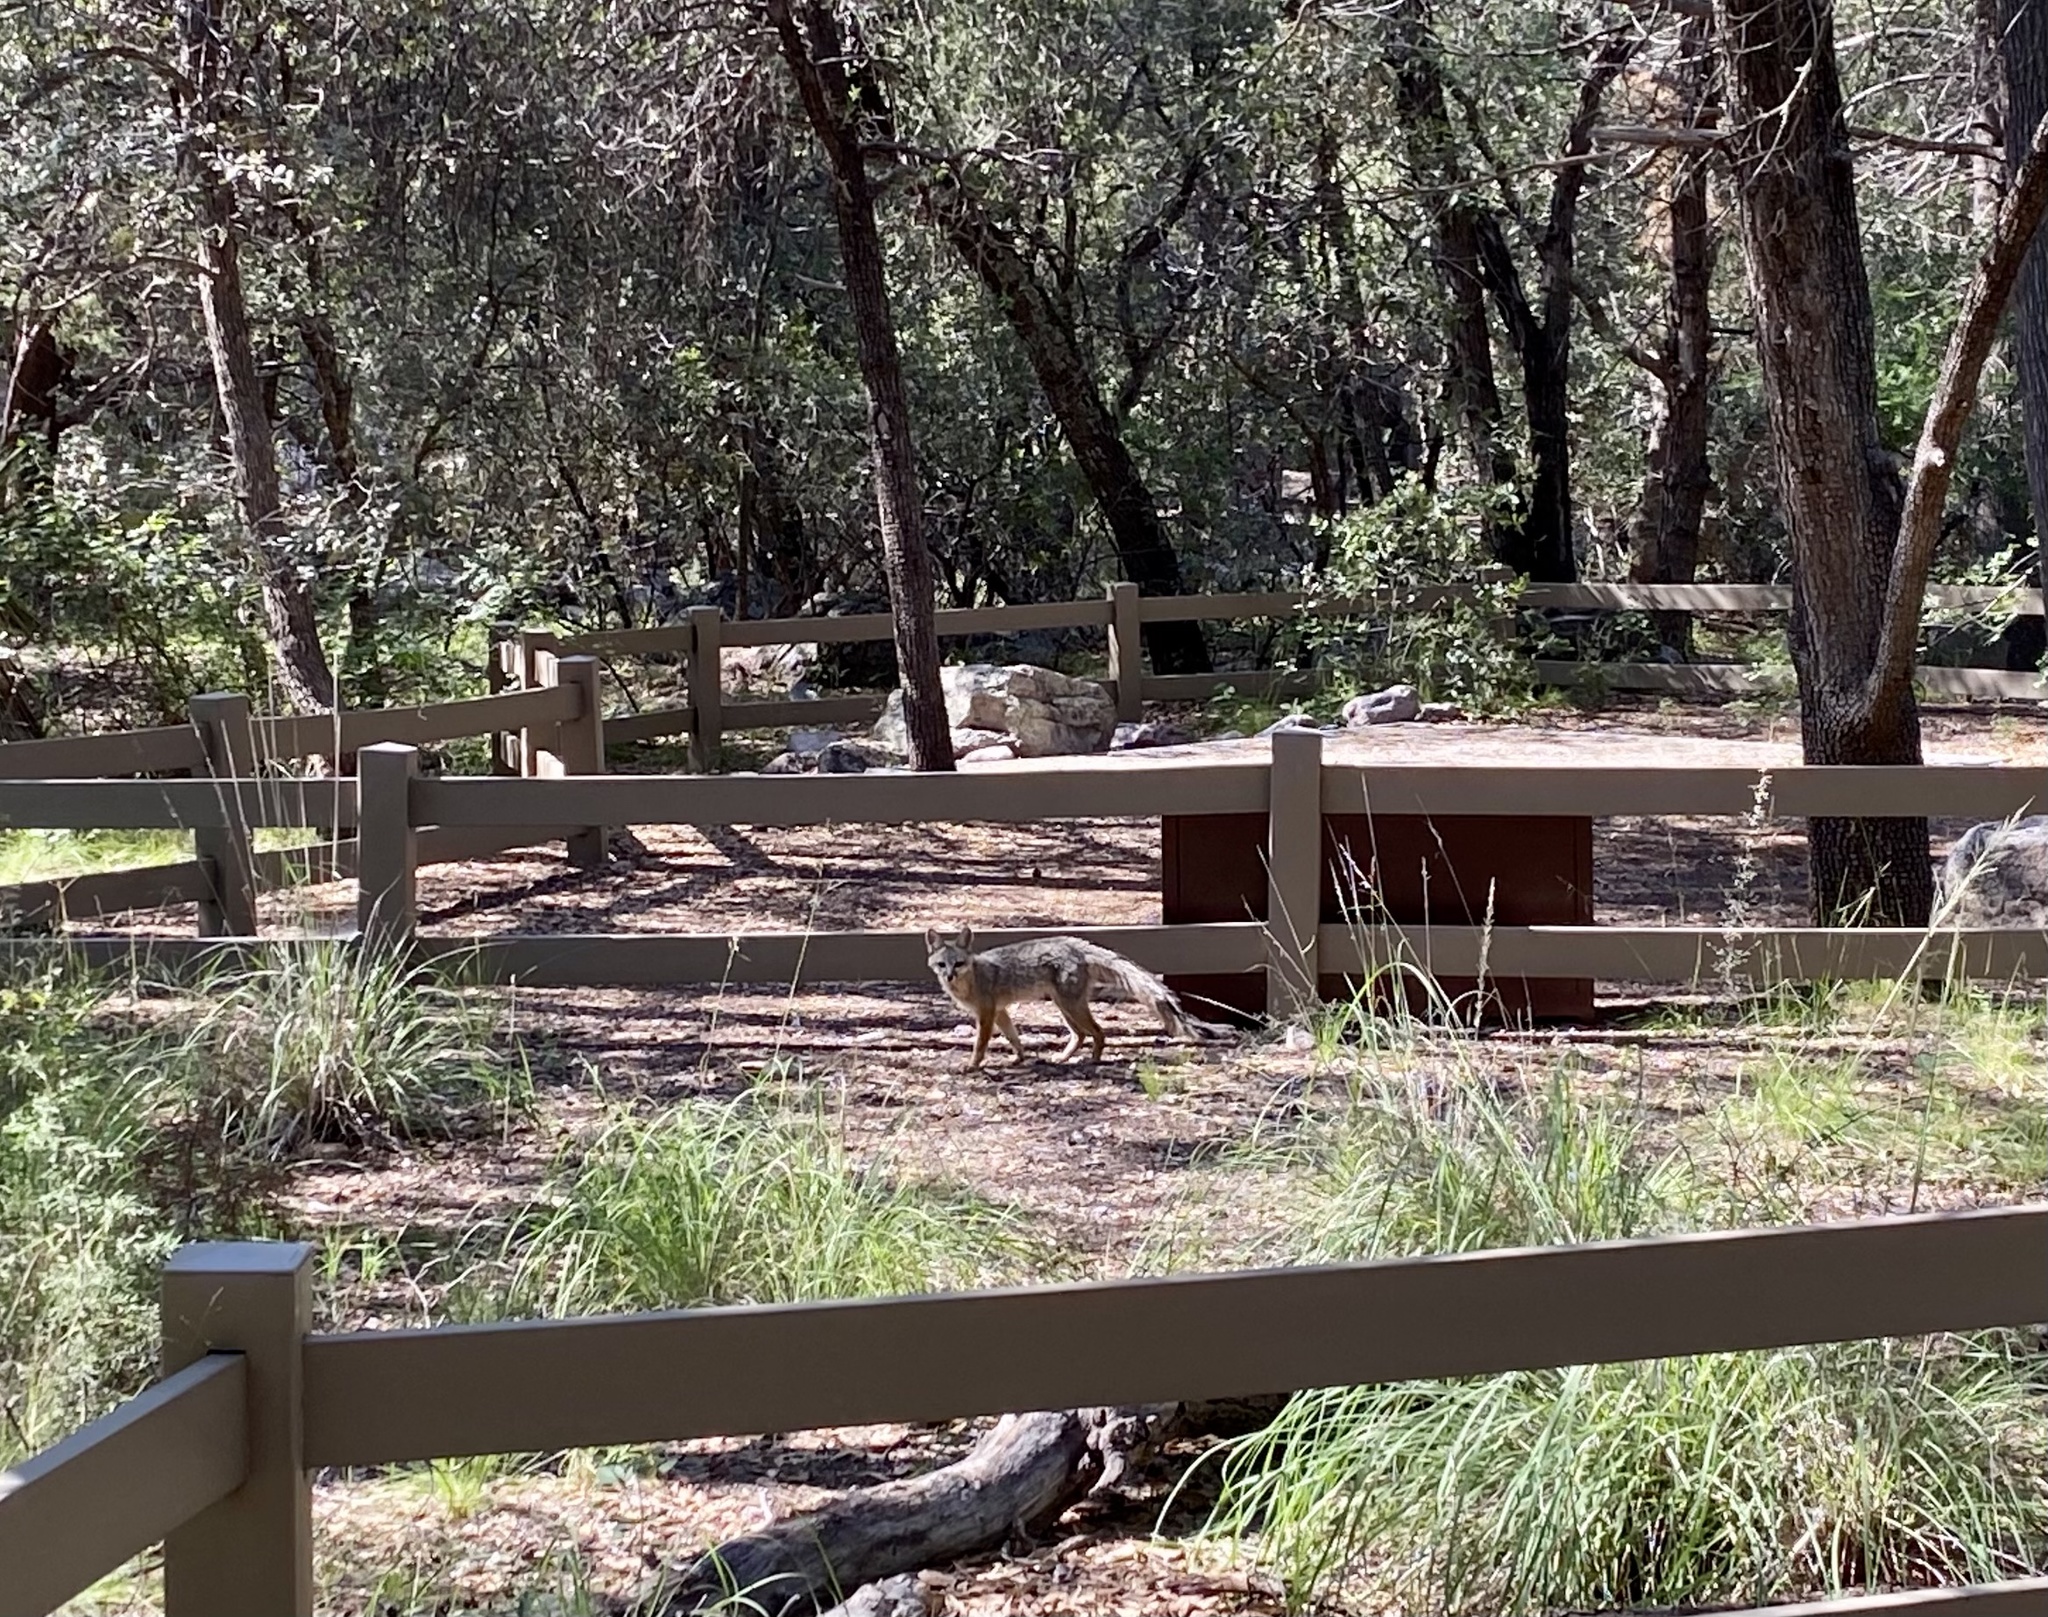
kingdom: Animalia
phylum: Chordata
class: Mammalia
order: Carnivora
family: Canidae
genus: Urocyon
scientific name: Urocyon cinereoargenteus
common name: Gray fox
